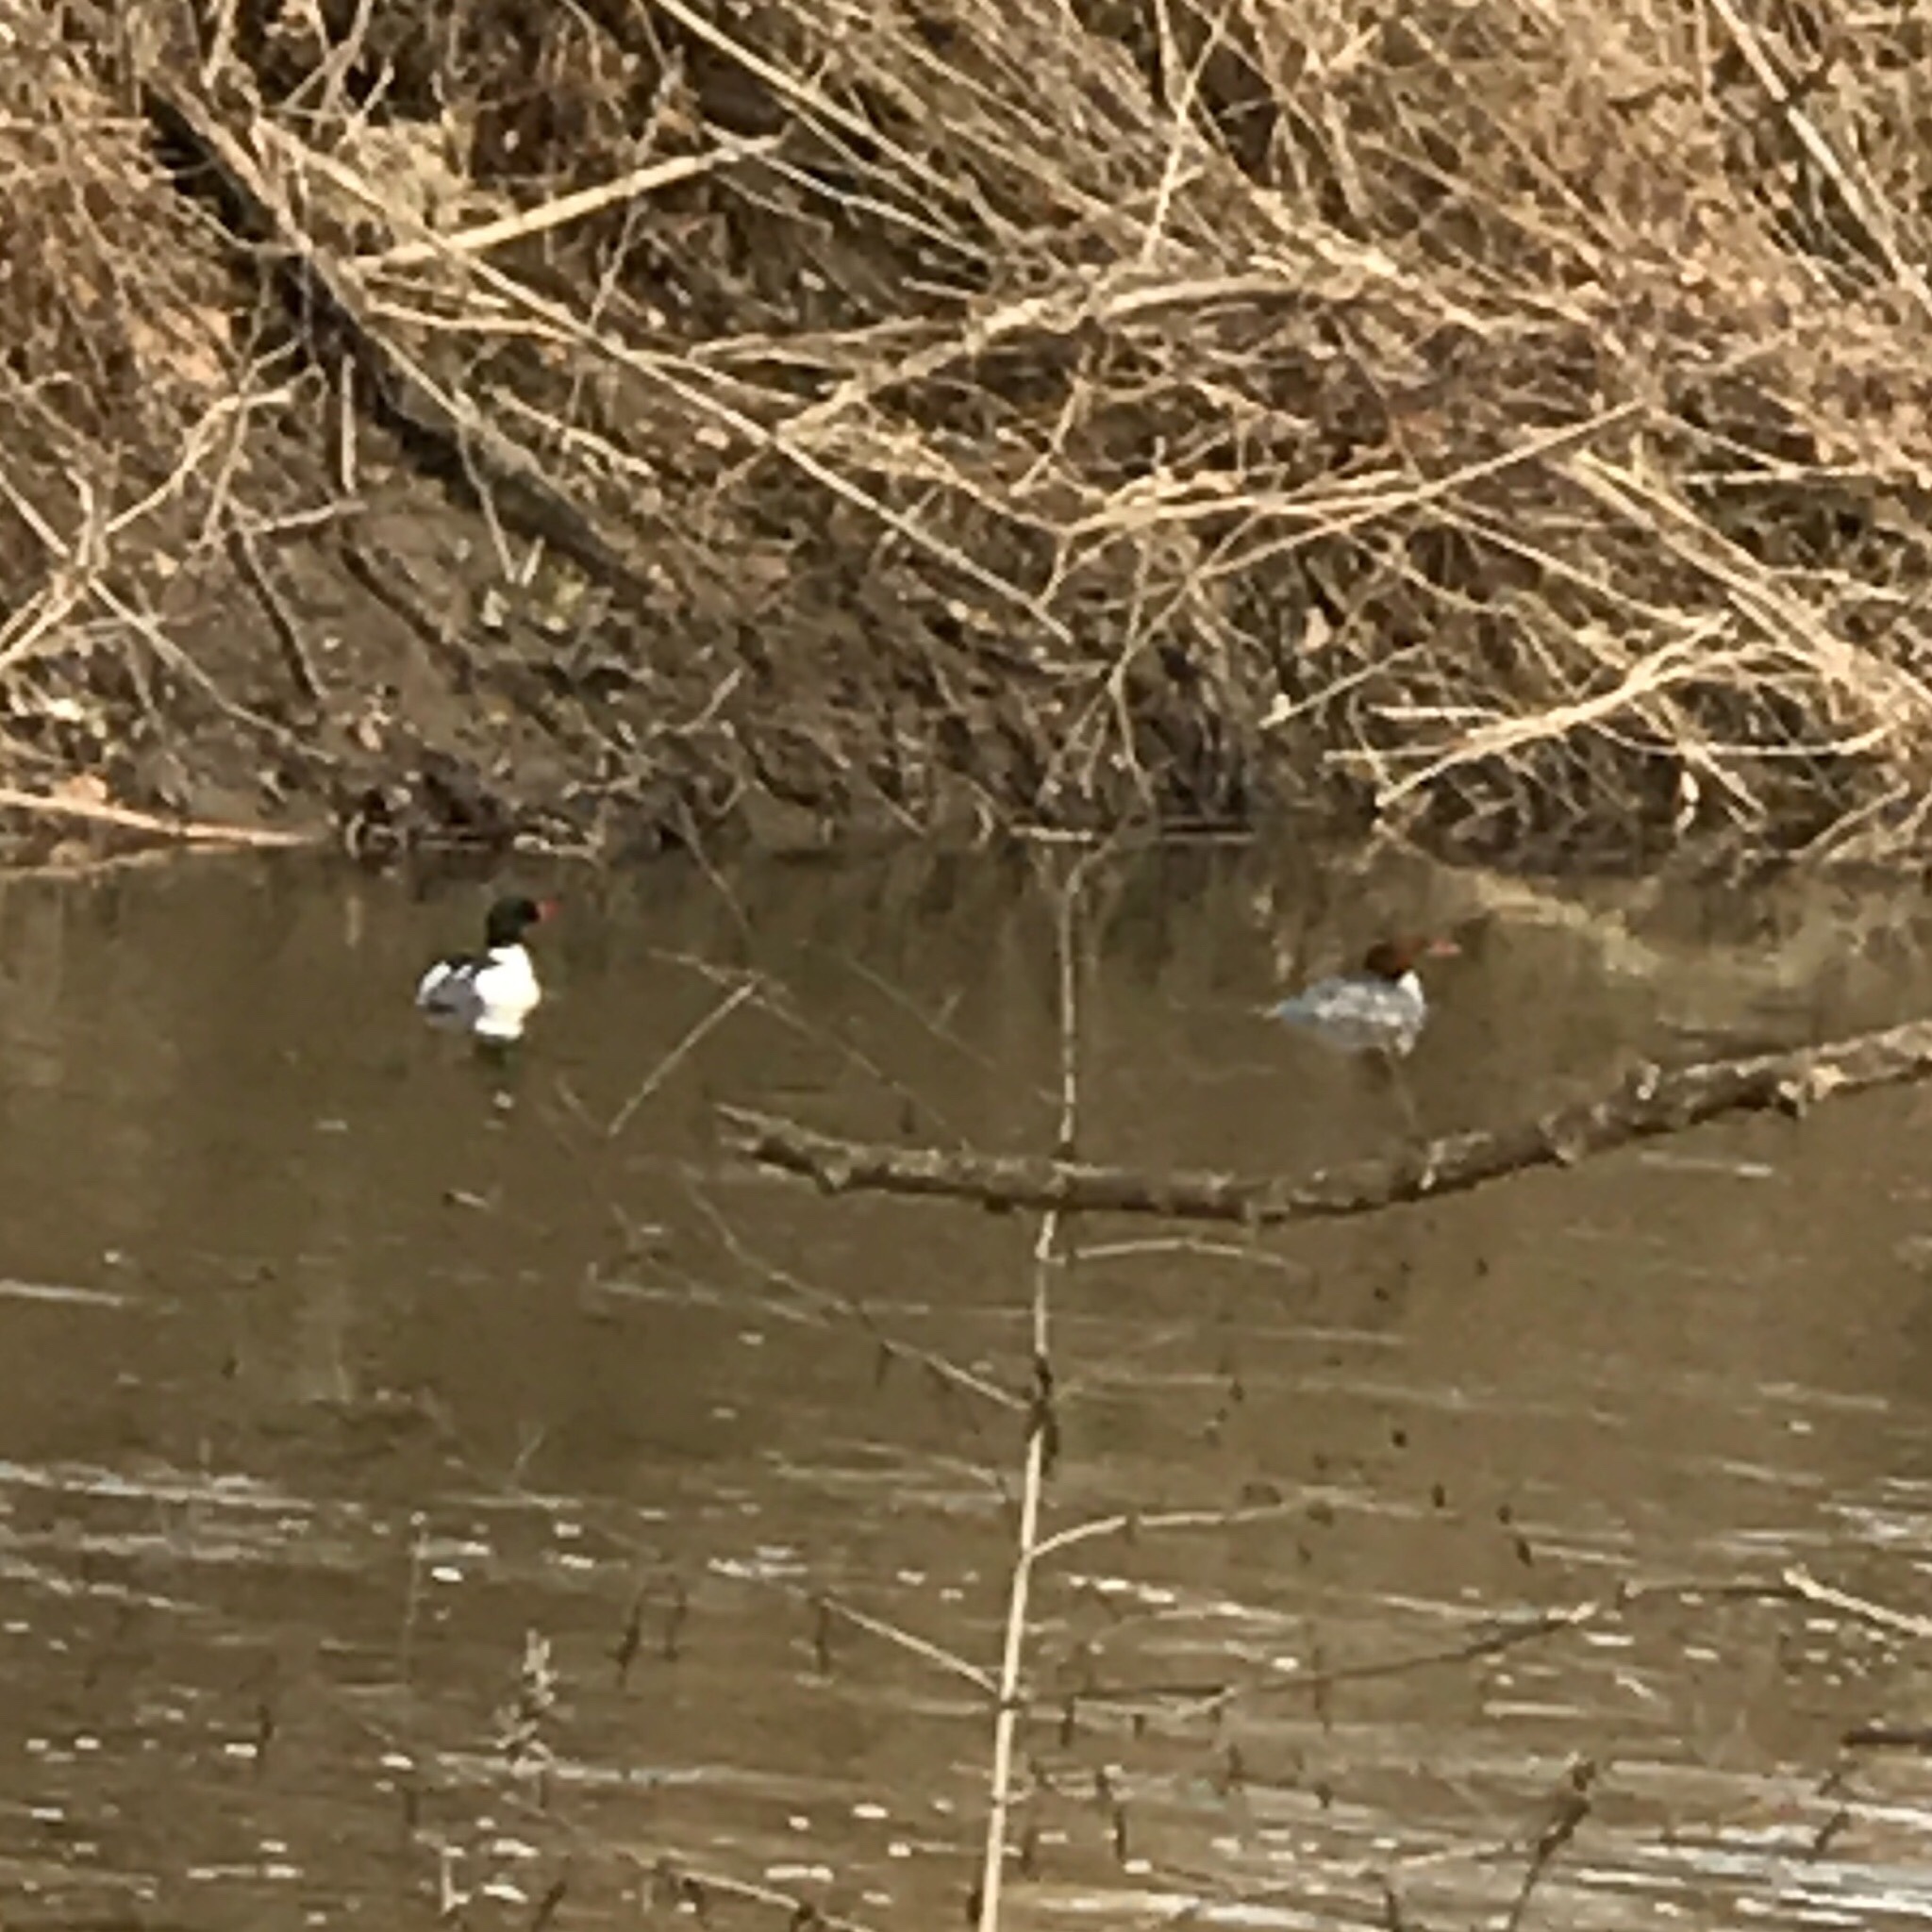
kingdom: Animalia
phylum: Chordata
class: Aves
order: Anseriformes
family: Anatidae
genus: Mergus
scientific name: Mergus merganser
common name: Common merganser
